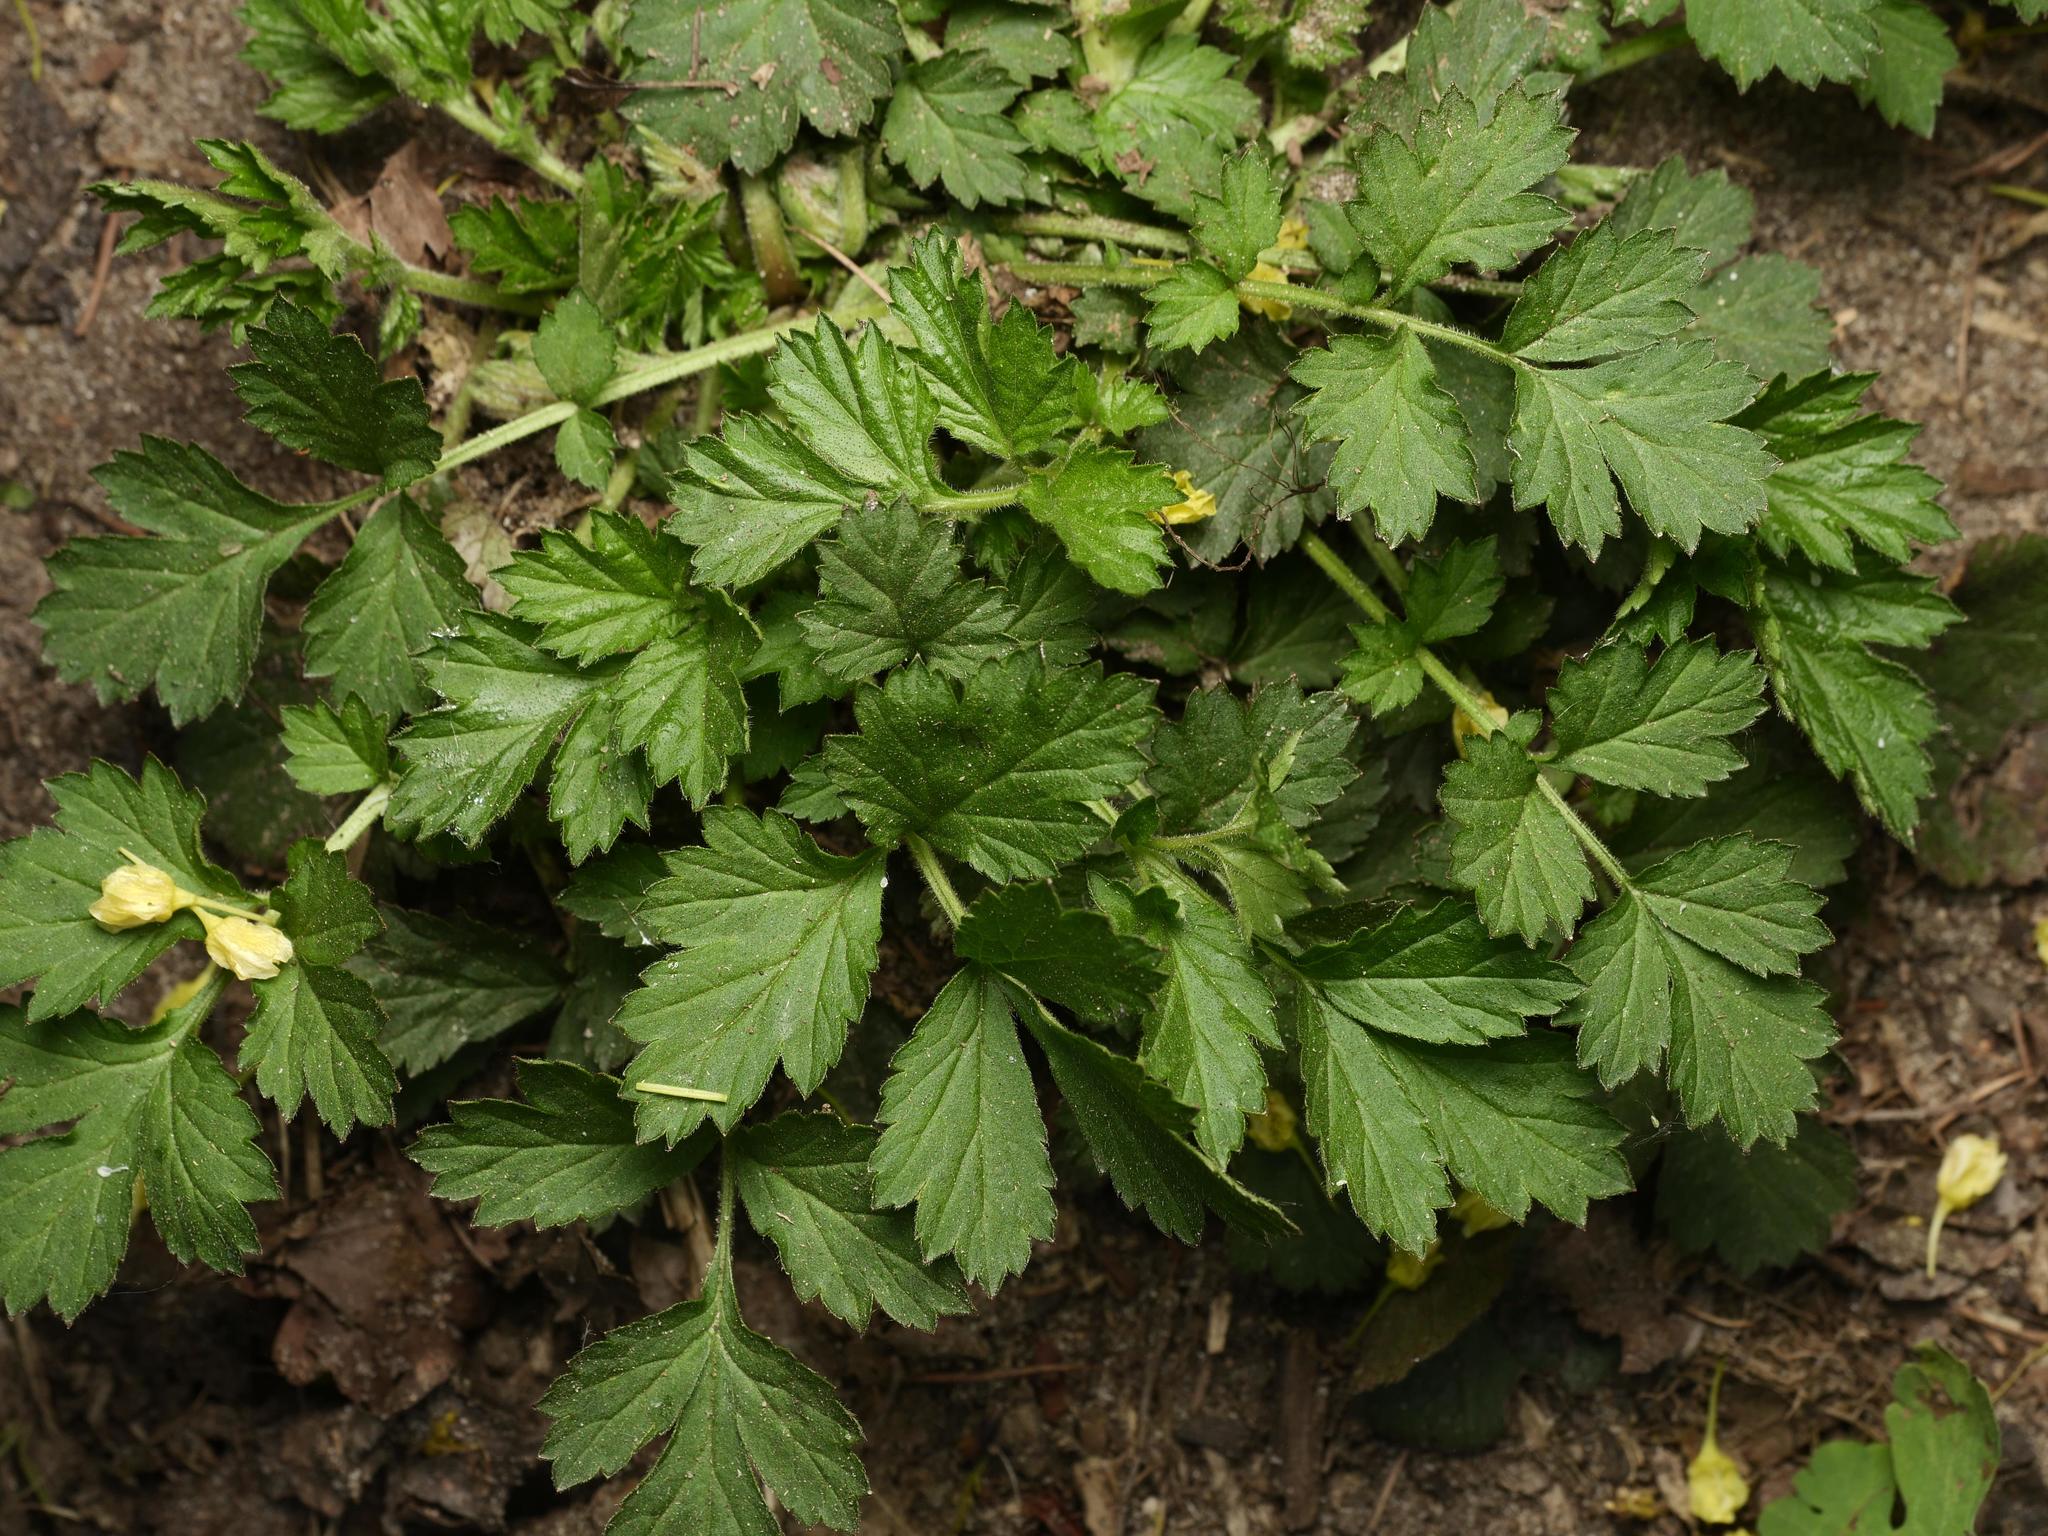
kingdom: Plantae
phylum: Tracheophyta
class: Magnoliopsida
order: Rosales
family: Rosaceae
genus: Geum
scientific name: Geum urbanum
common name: Wood avens
